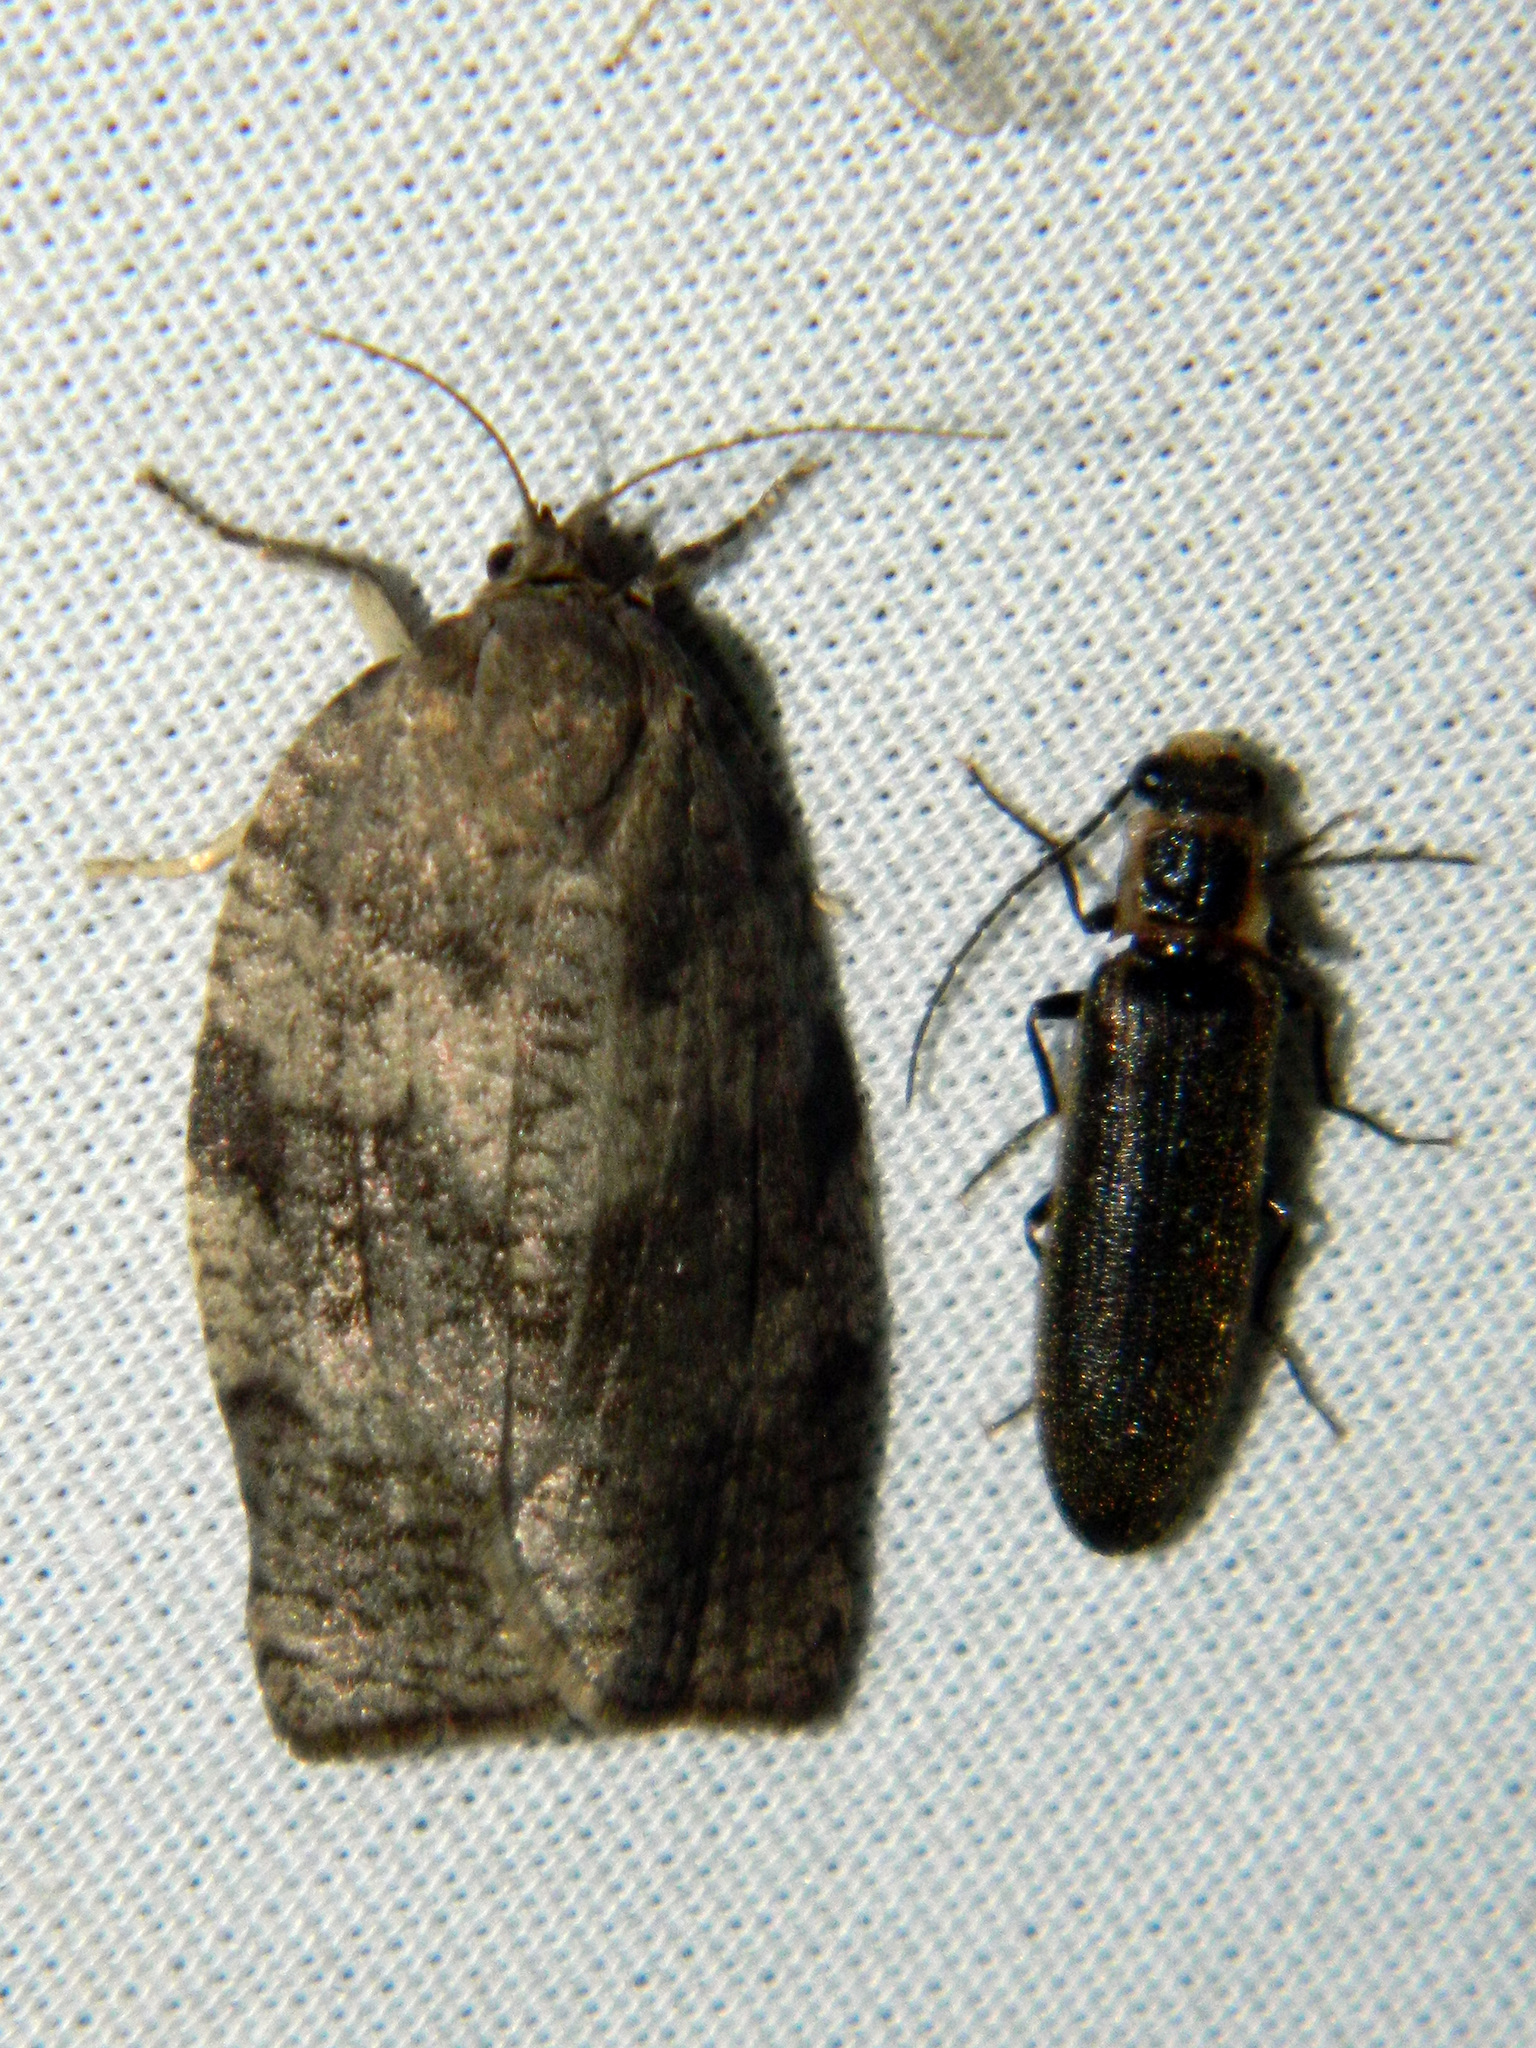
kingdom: Animalia
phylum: Arthropoda
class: Insecta
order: Coleoptera
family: Elateridae
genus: Denticollis
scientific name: Denticollis denticornis
